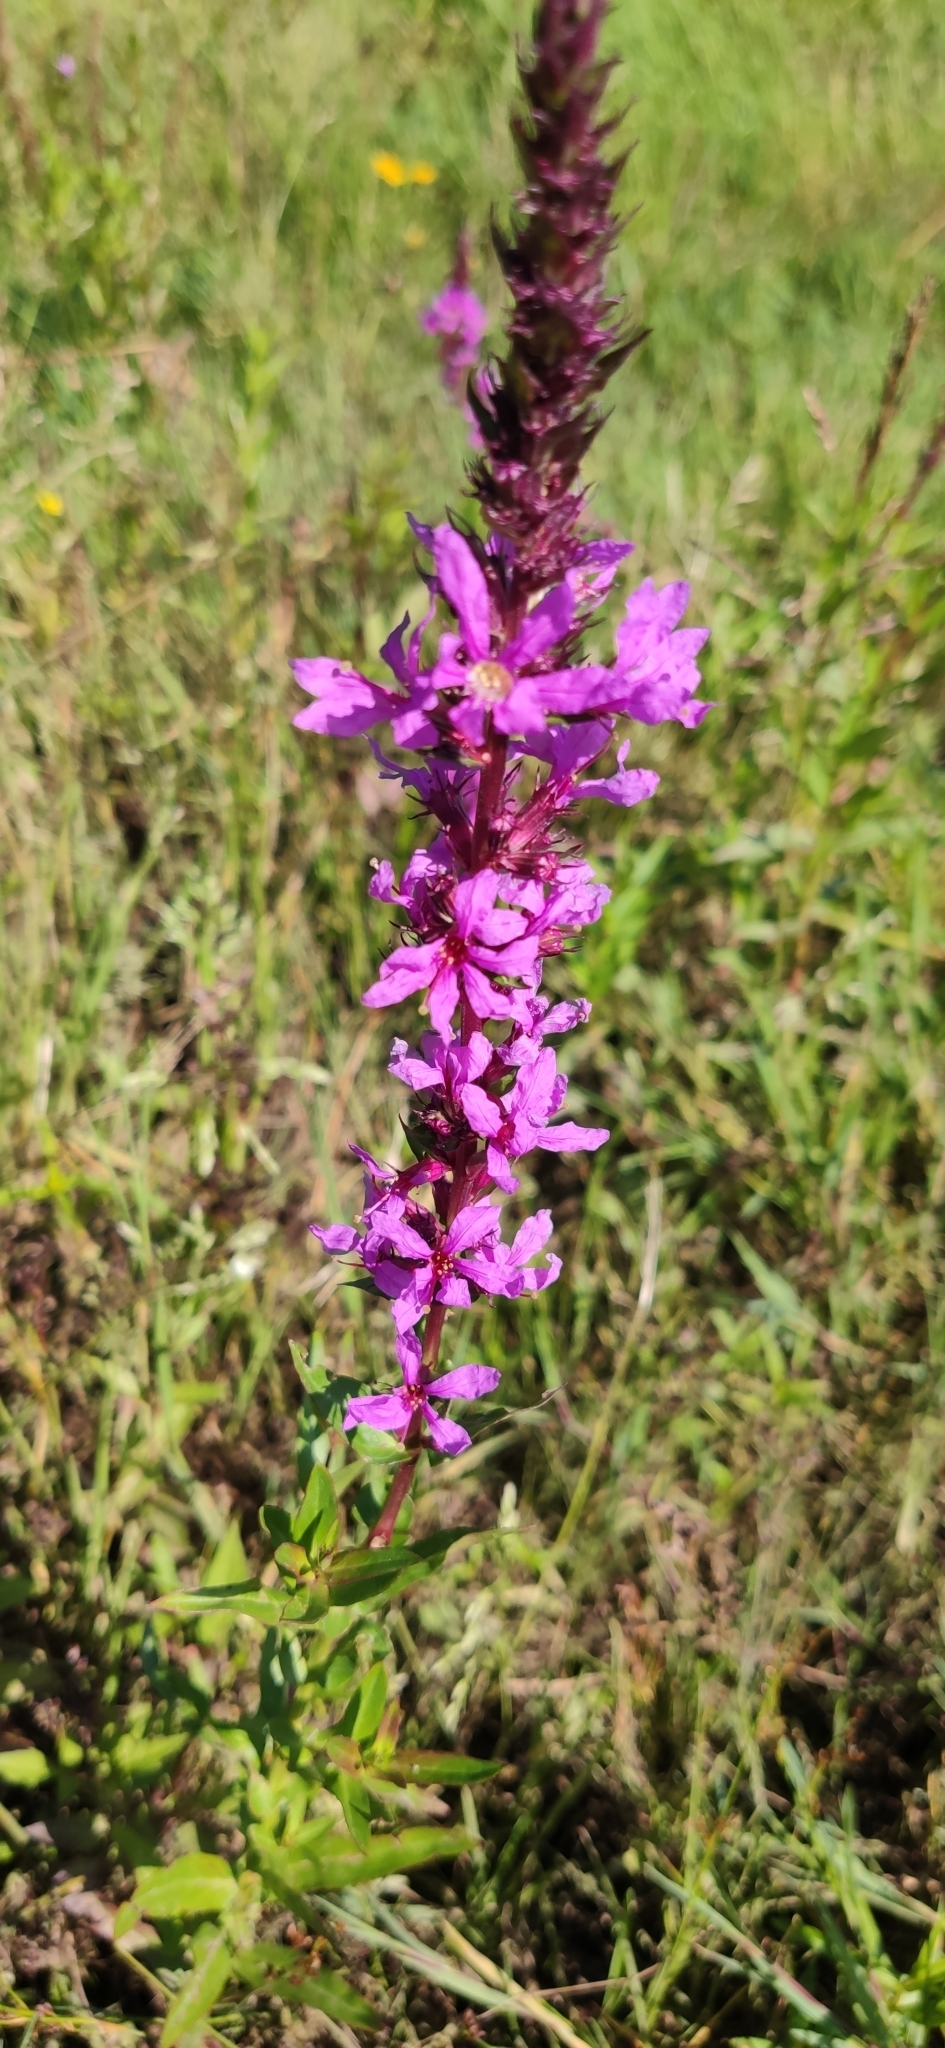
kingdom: Plantae
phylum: Tracheophyta
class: Magnoliopsida
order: Myrtales
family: Lythraceae
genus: Lythrum
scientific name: Lythrum salicaria
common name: Purple loosestrife
